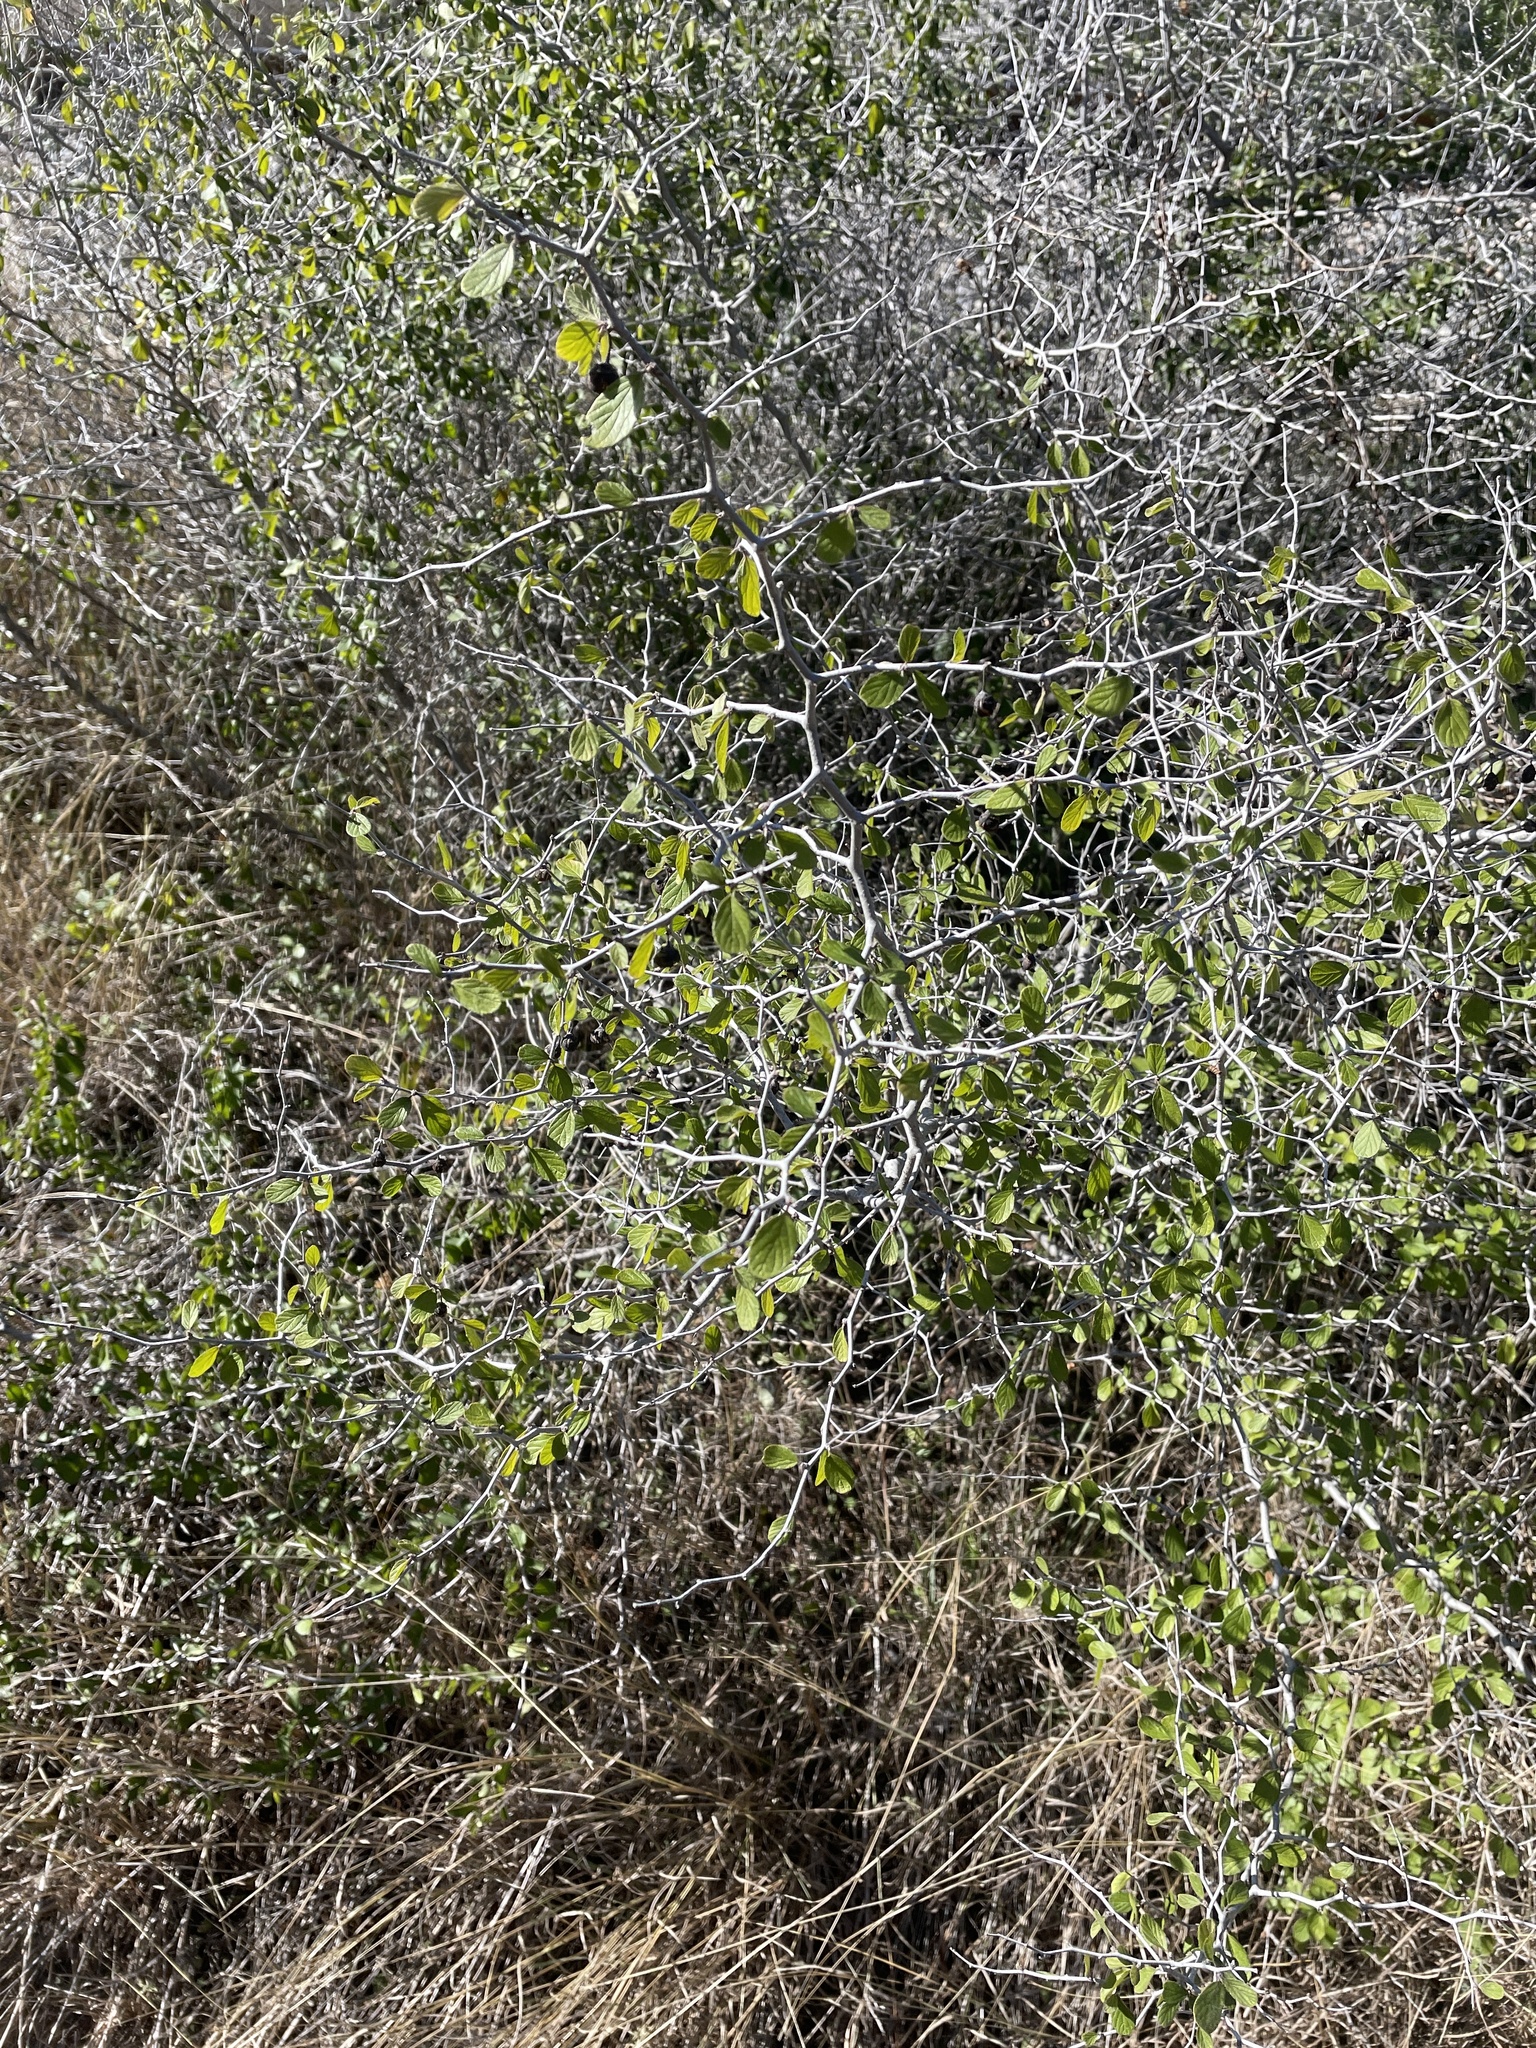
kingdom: Plantae
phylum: Tracheophyta
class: Magnoliopsida
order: Rosales
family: Rhamnaceae
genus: Colubrina
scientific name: Colubrina texensis
